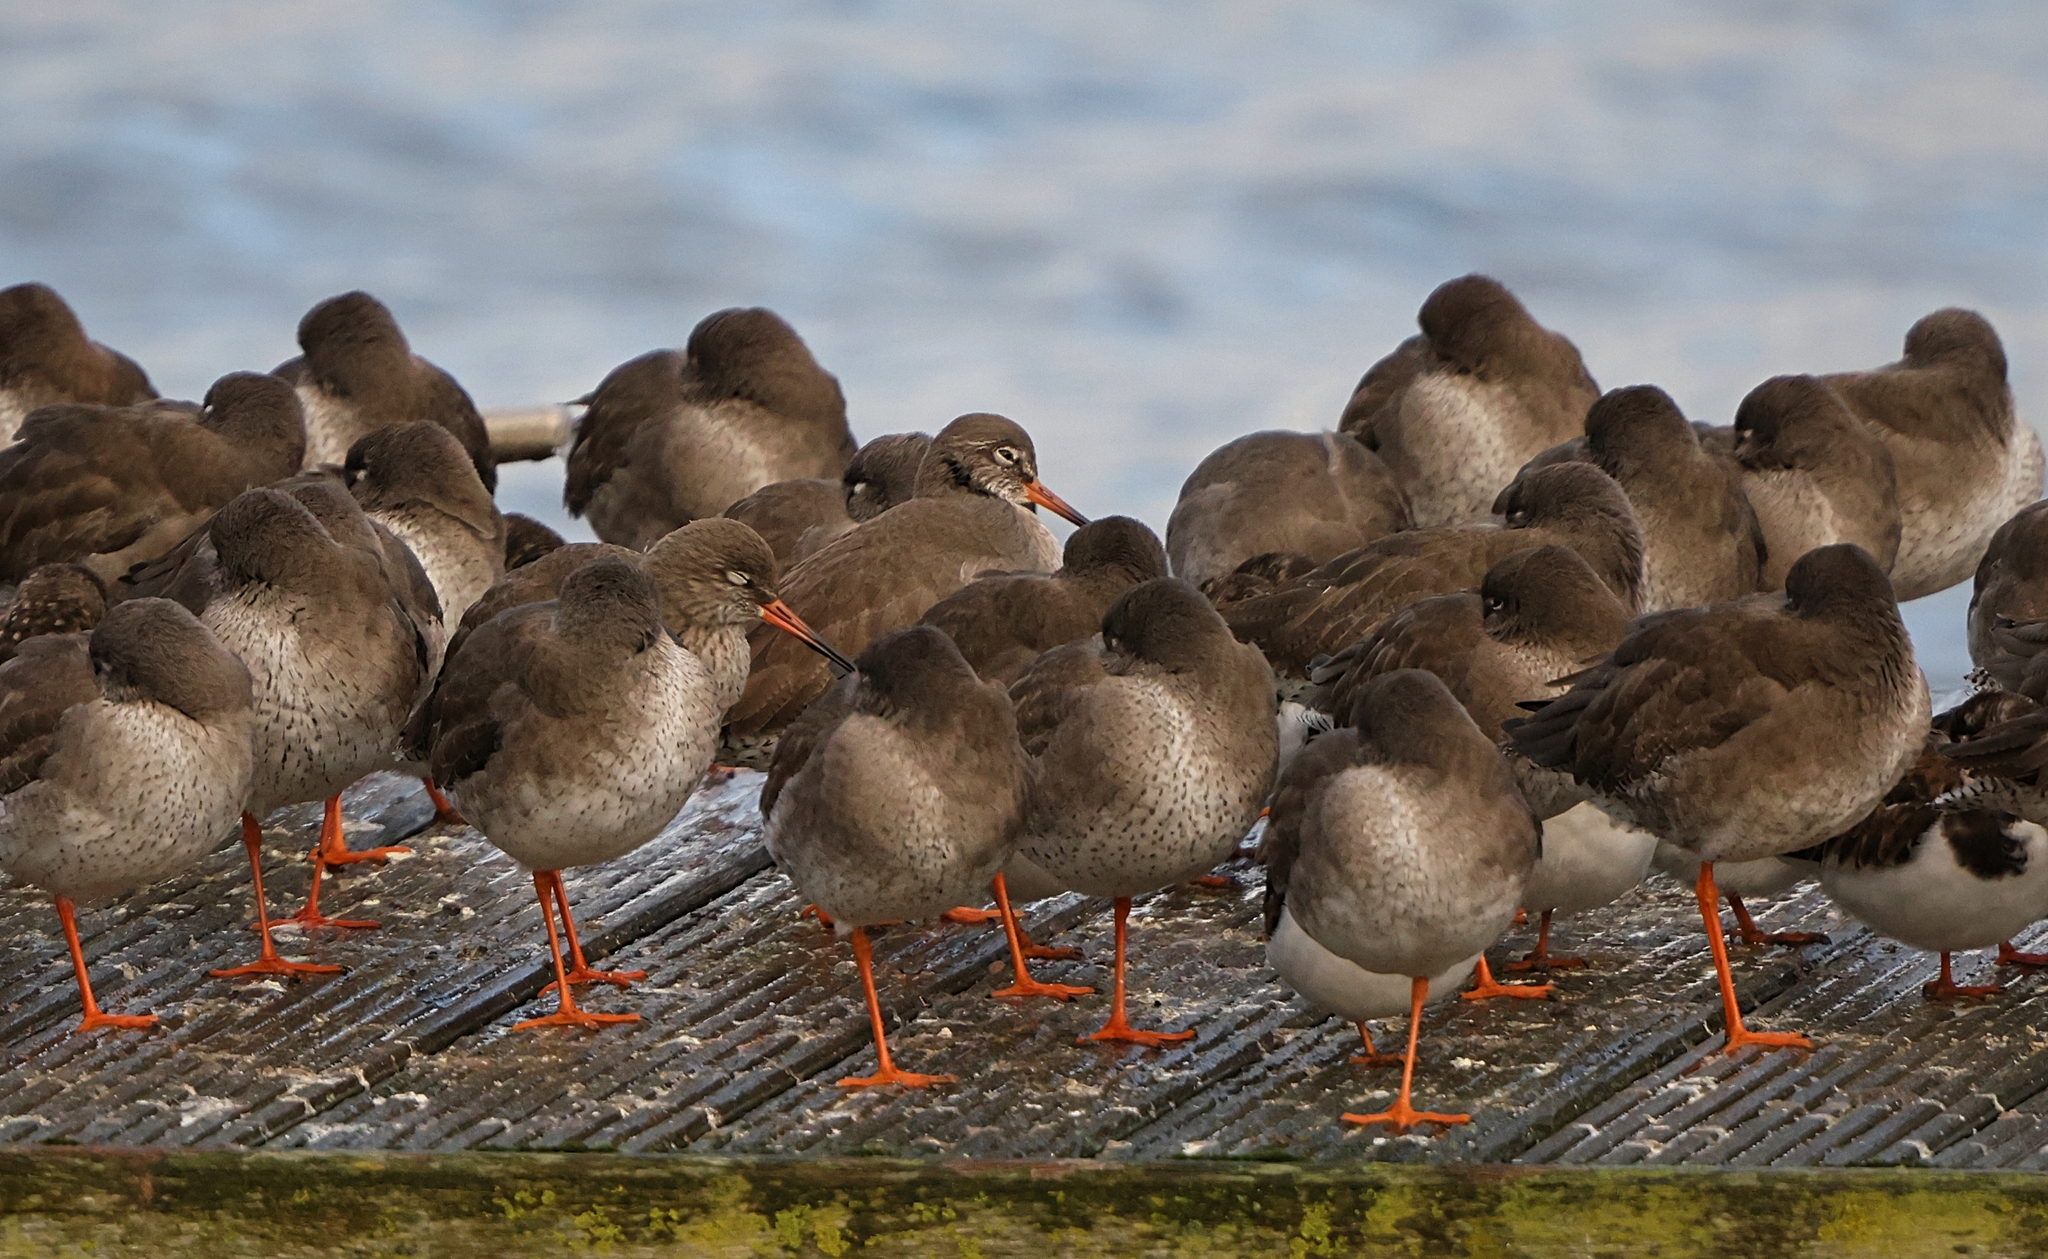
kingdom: Animalia
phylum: Chordata
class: Aves
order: Charadriiformes
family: Scolopacidae
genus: Tringa
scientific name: Tringa totanus
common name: Common redshank
